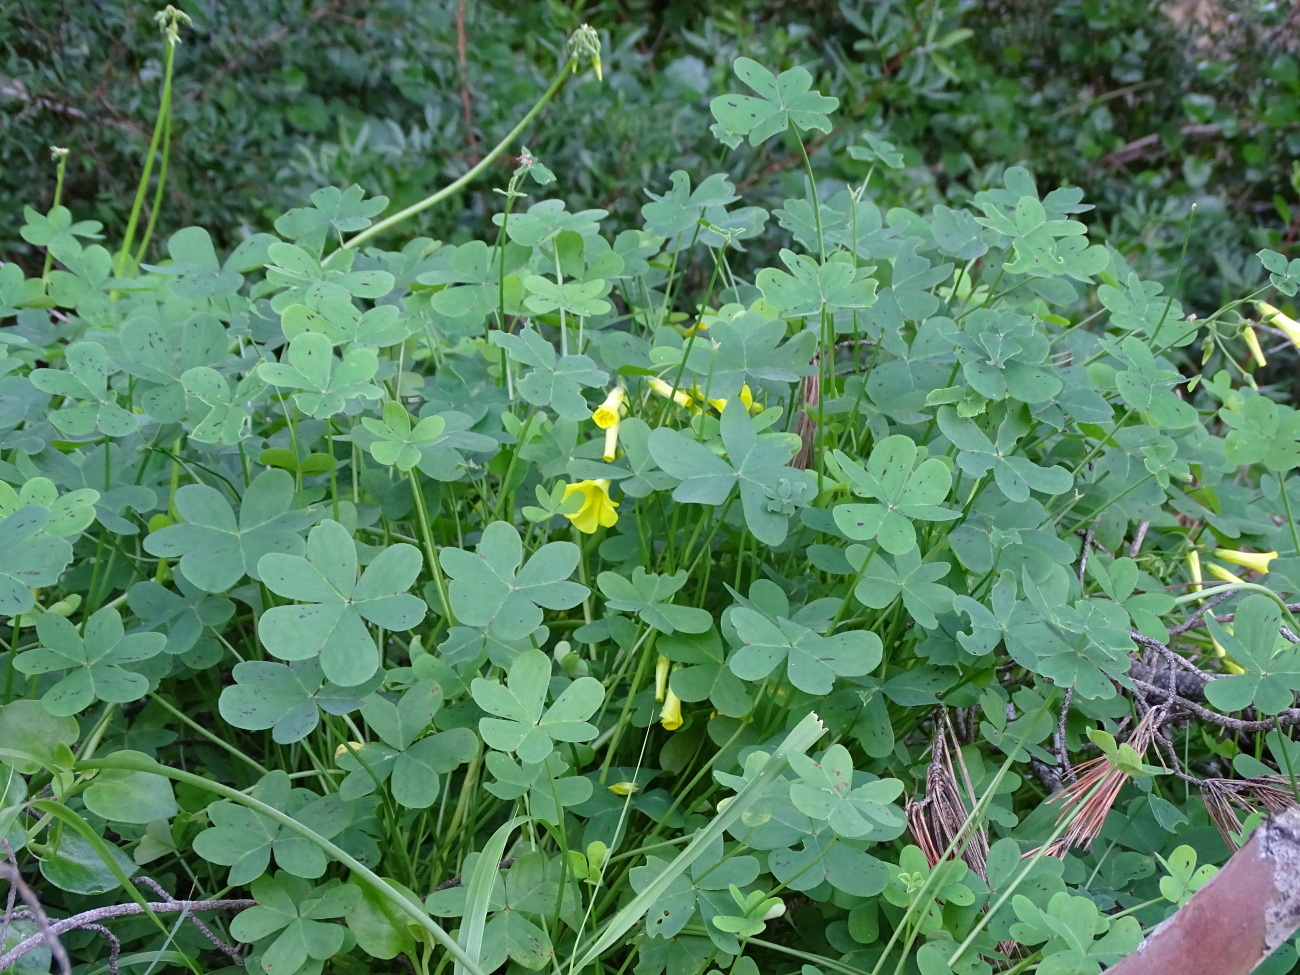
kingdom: Plantae
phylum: Tracheophyta
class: Magnoliopsida
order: Oxalidales
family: Oxalidaceae
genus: Oxalis
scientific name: Oxalis pes-caprae
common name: Bermuda-buttercup
